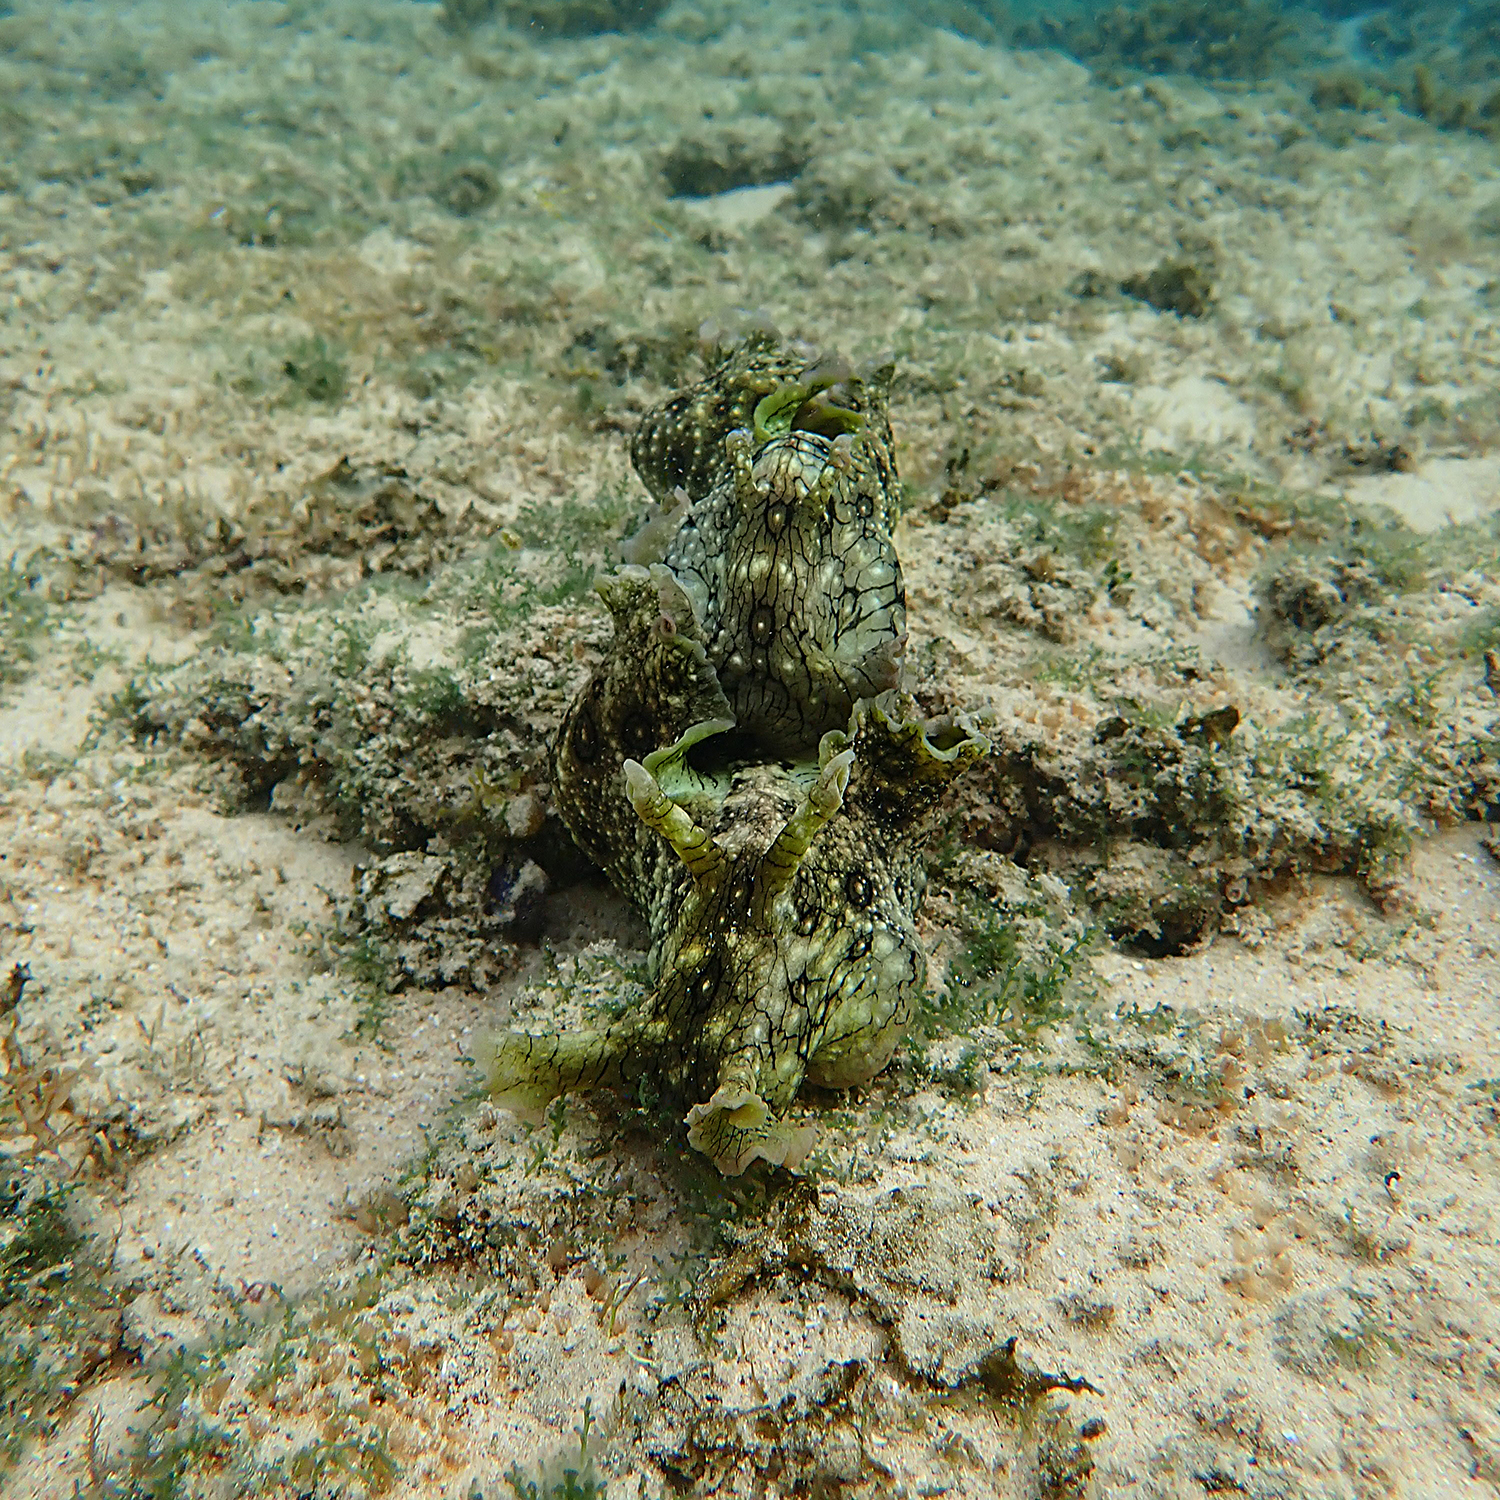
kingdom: Animalia
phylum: Mollusca
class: Gastropoda
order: Aplysiida
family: Aplysiidae
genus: Aplysia
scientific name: Aplysia argus
